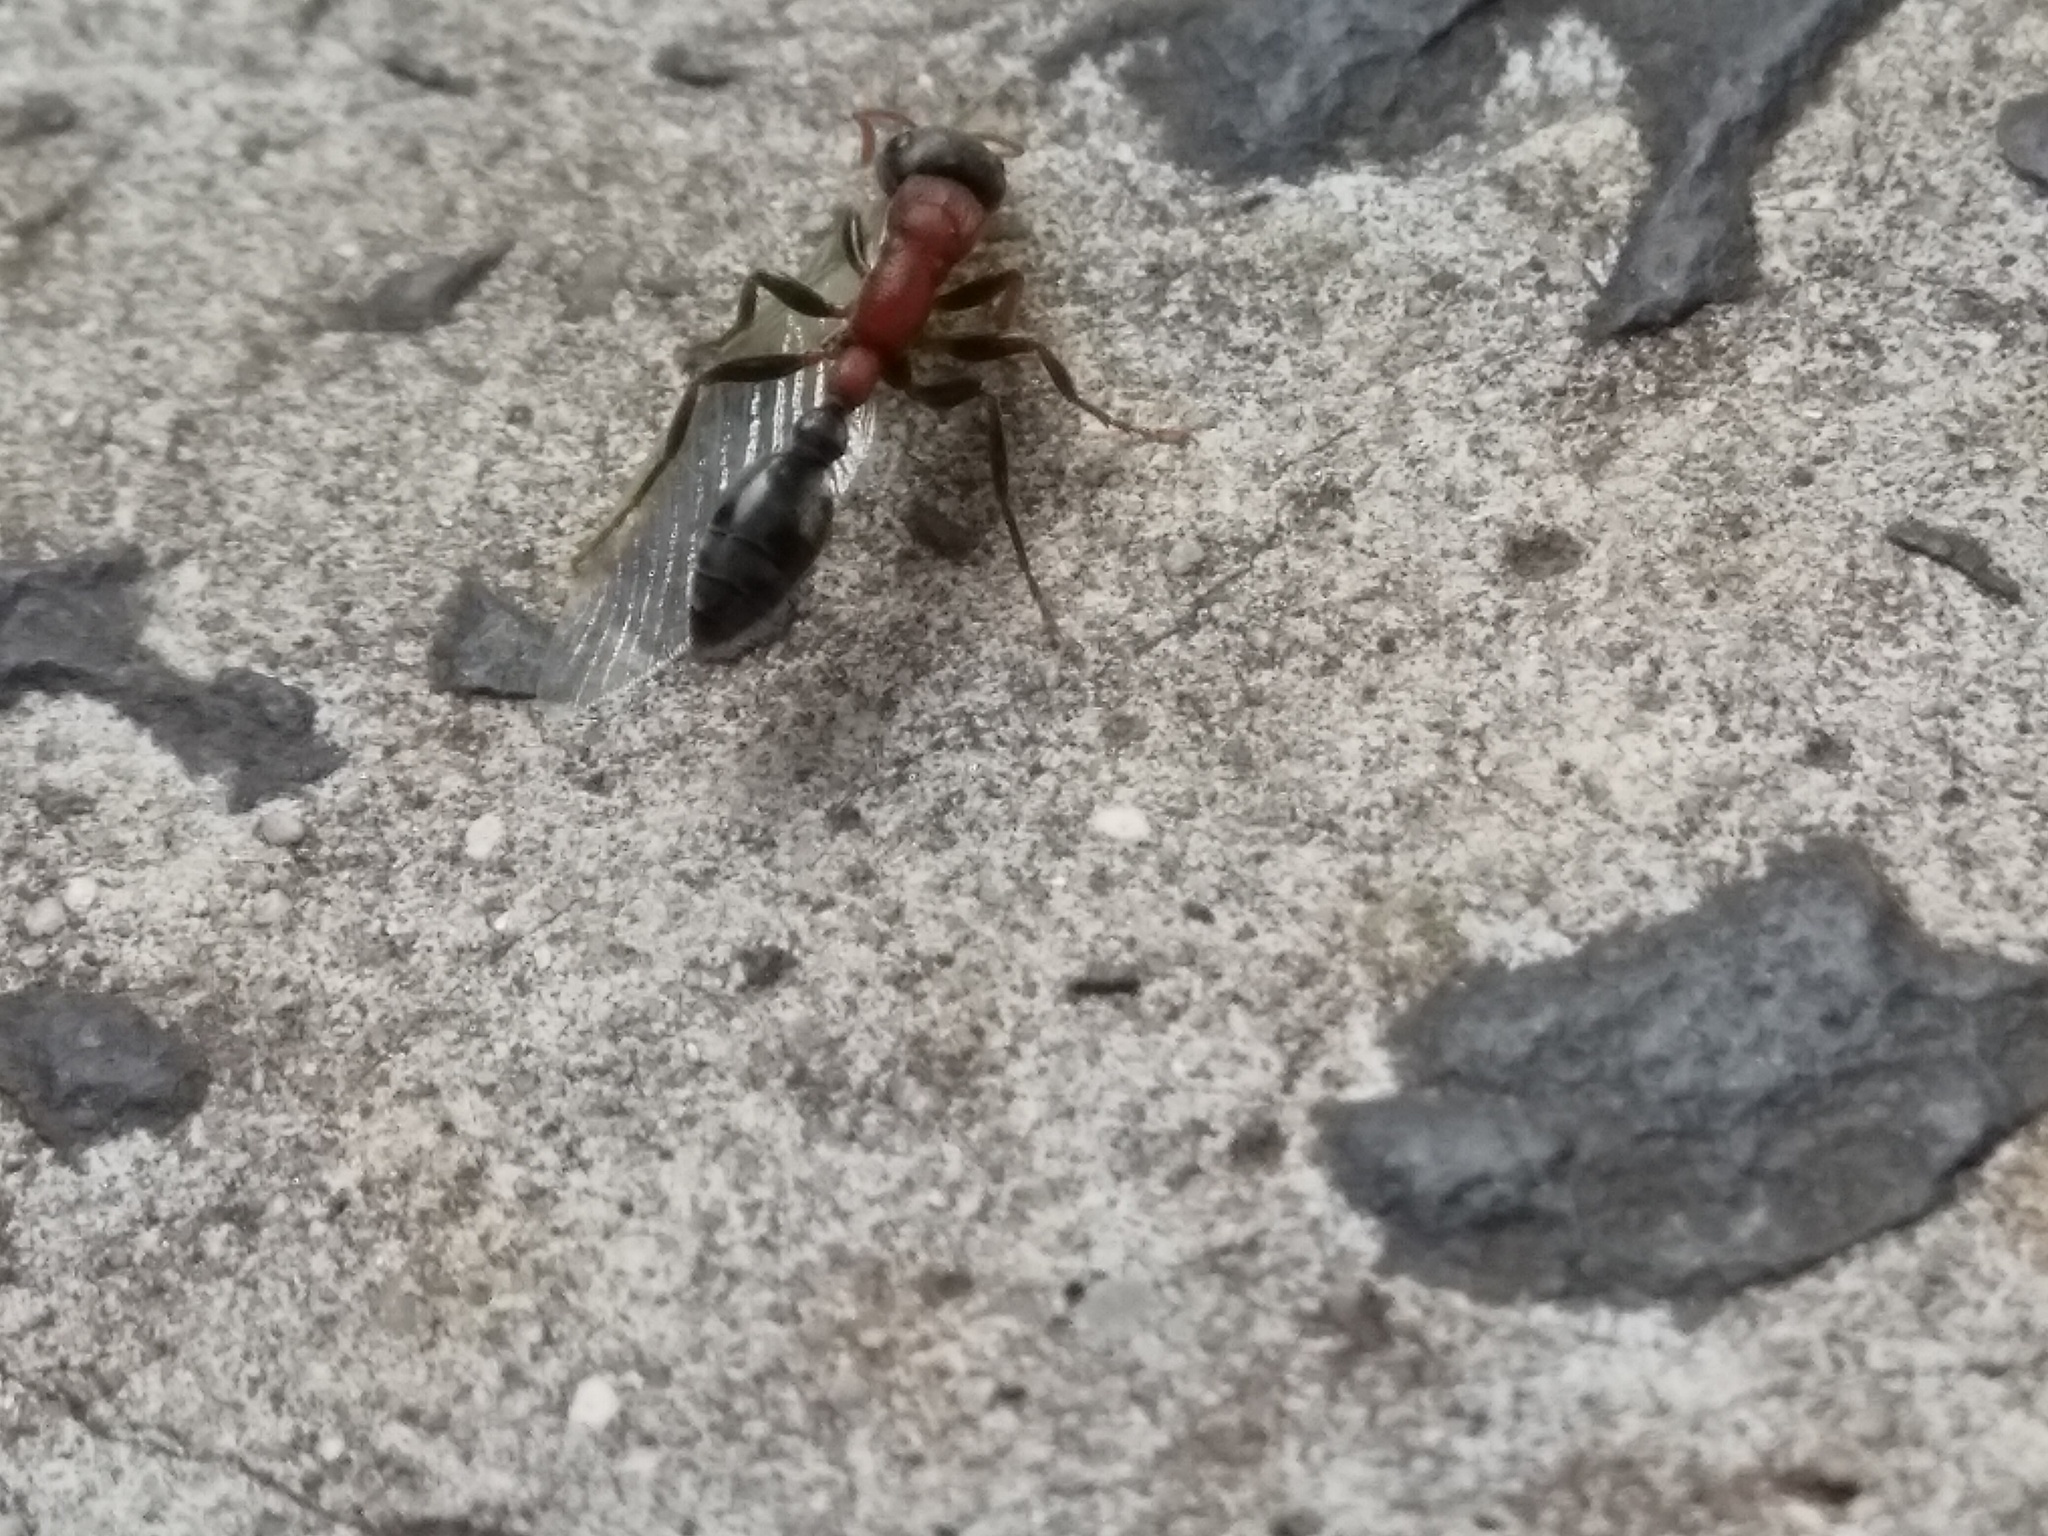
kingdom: Animalia
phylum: Arthropoda
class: Insecta
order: Hymenoptera
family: Formicidae
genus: Tetraponera
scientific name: Tetraponera rufonigra
